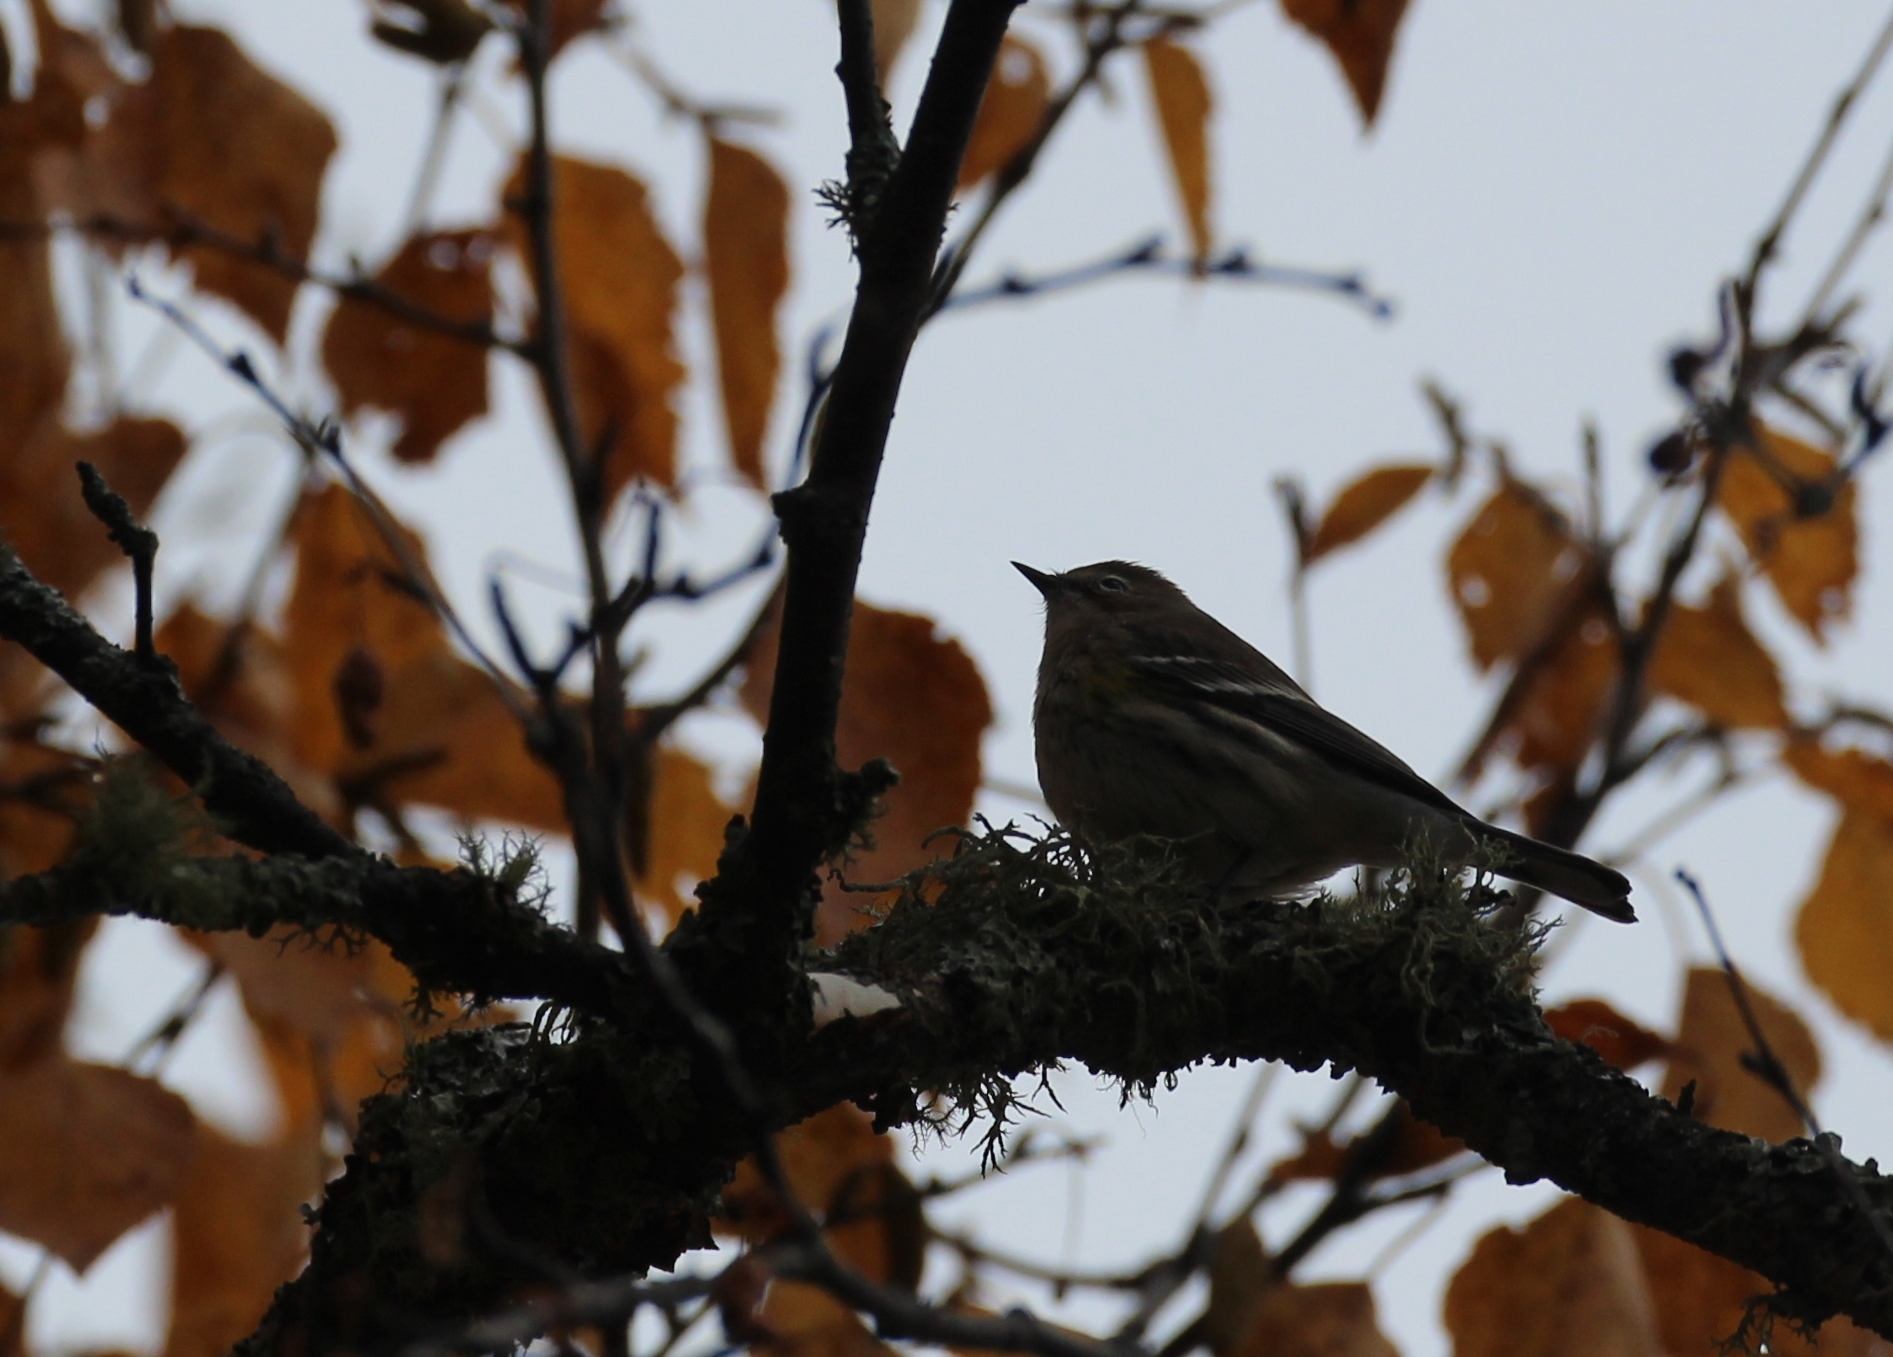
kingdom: Animalia
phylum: Chordata
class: Aves
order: Passeriformes
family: Parulidae
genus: Setophaga
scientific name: Setophaga coronata
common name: Myrtle warbler
